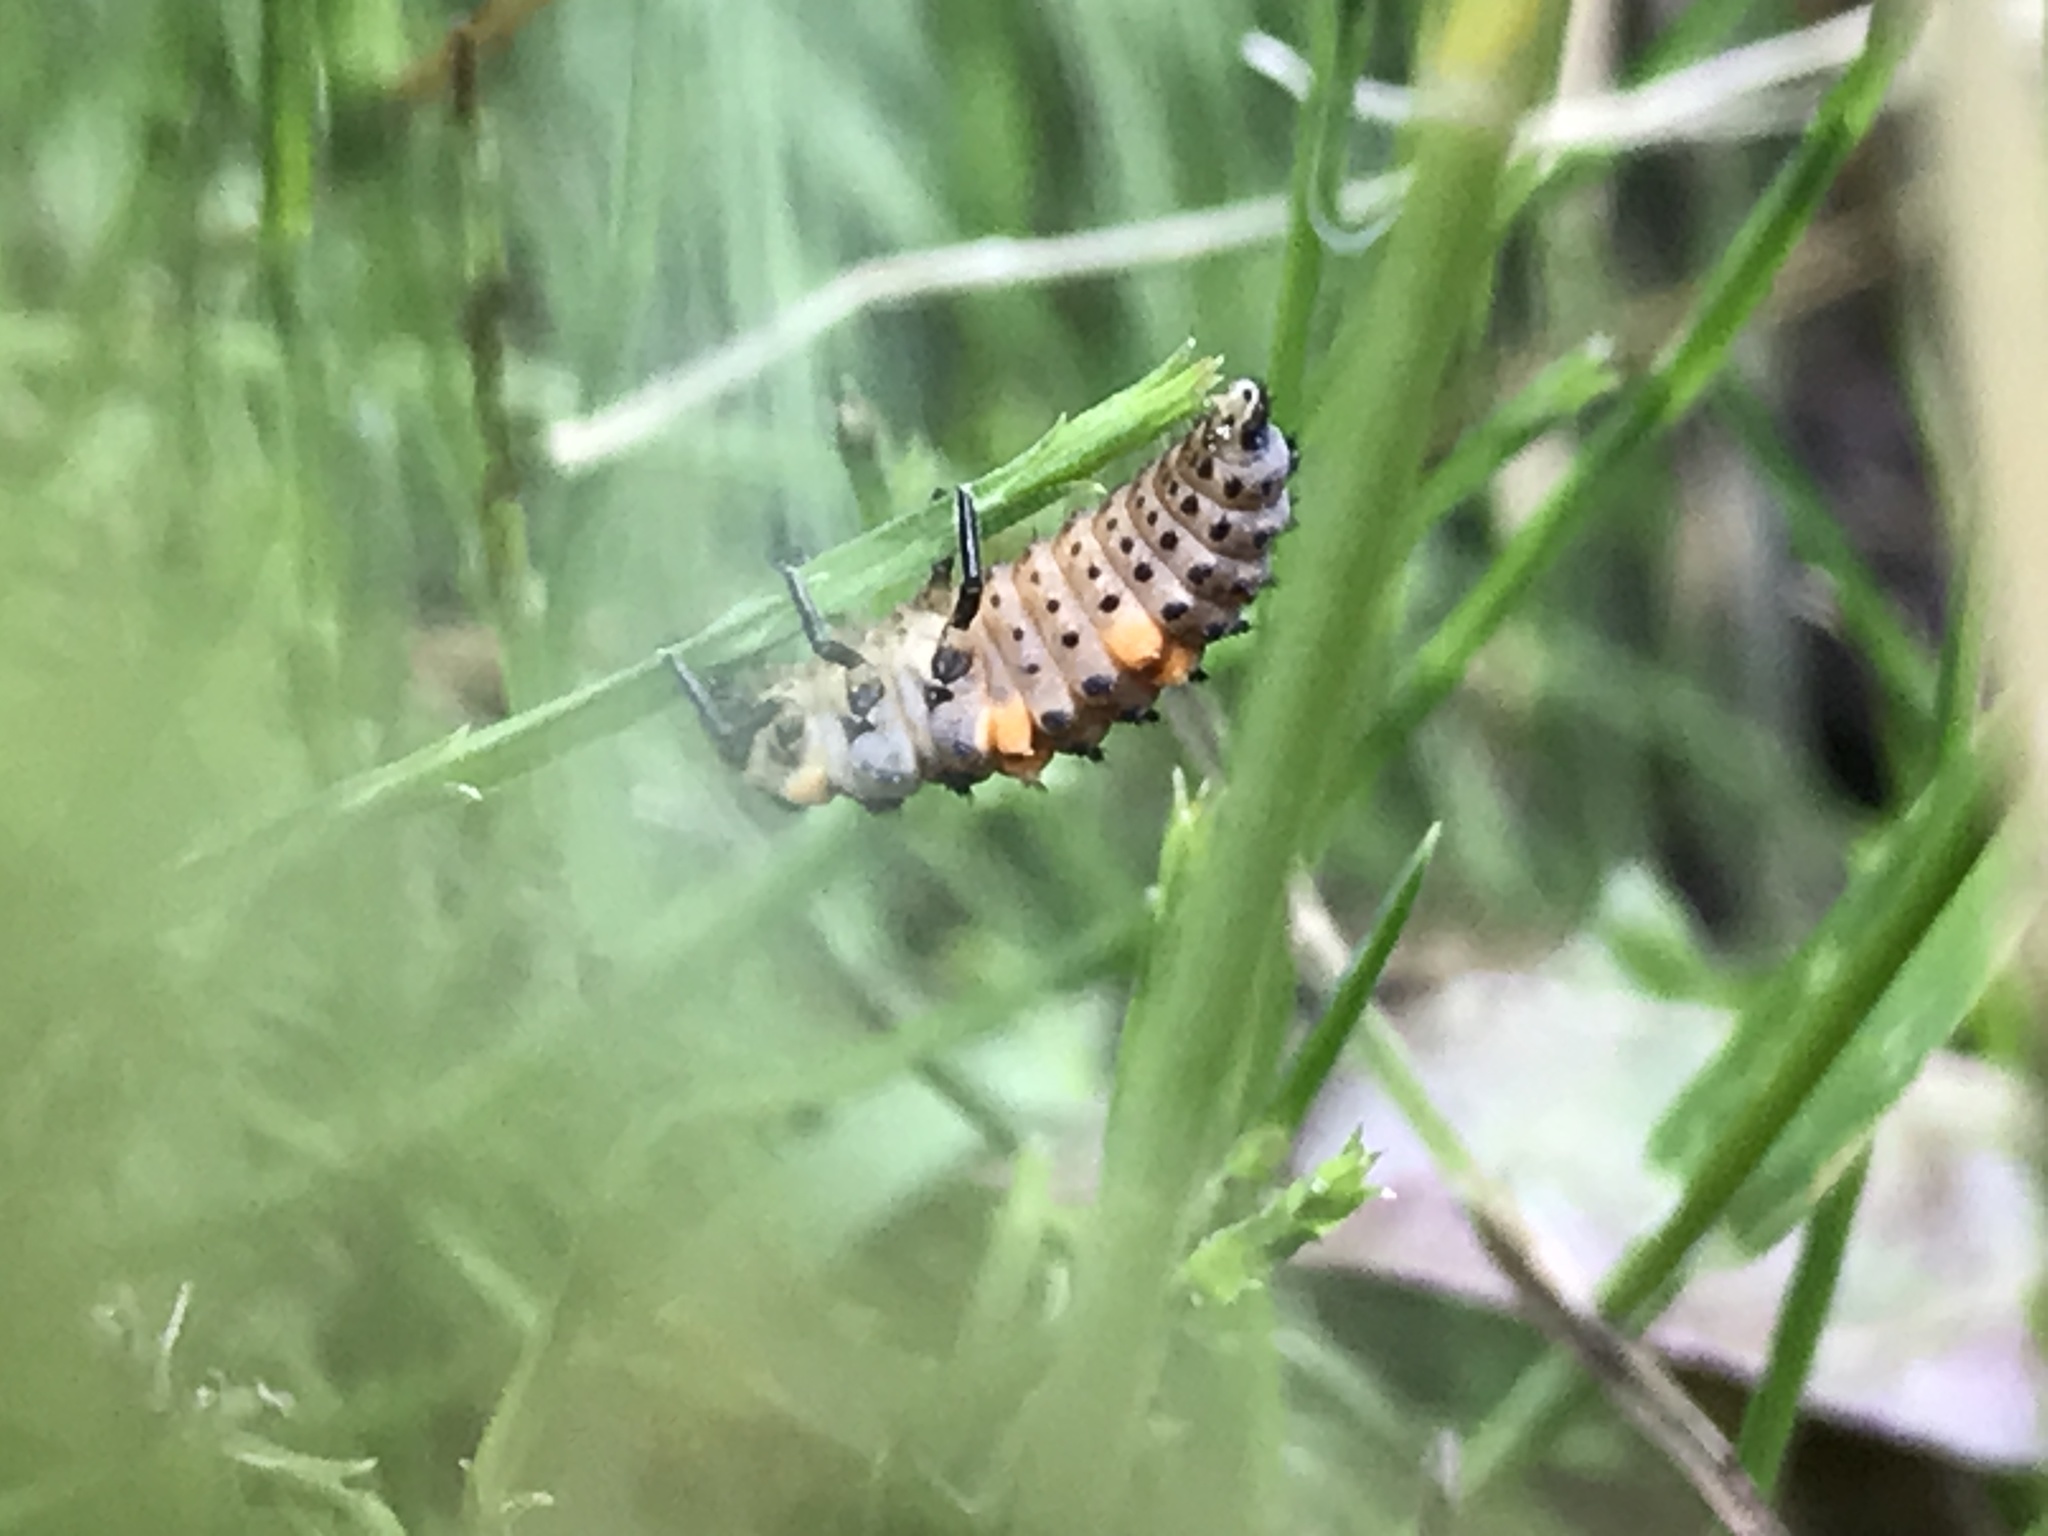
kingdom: Animalia
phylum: Arthropoda
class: Insecta
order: Coleoptera
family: Coccinellidae
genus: Coccinella
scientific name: Coccinella septempunctata
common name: Sevenspotted lady beetle
